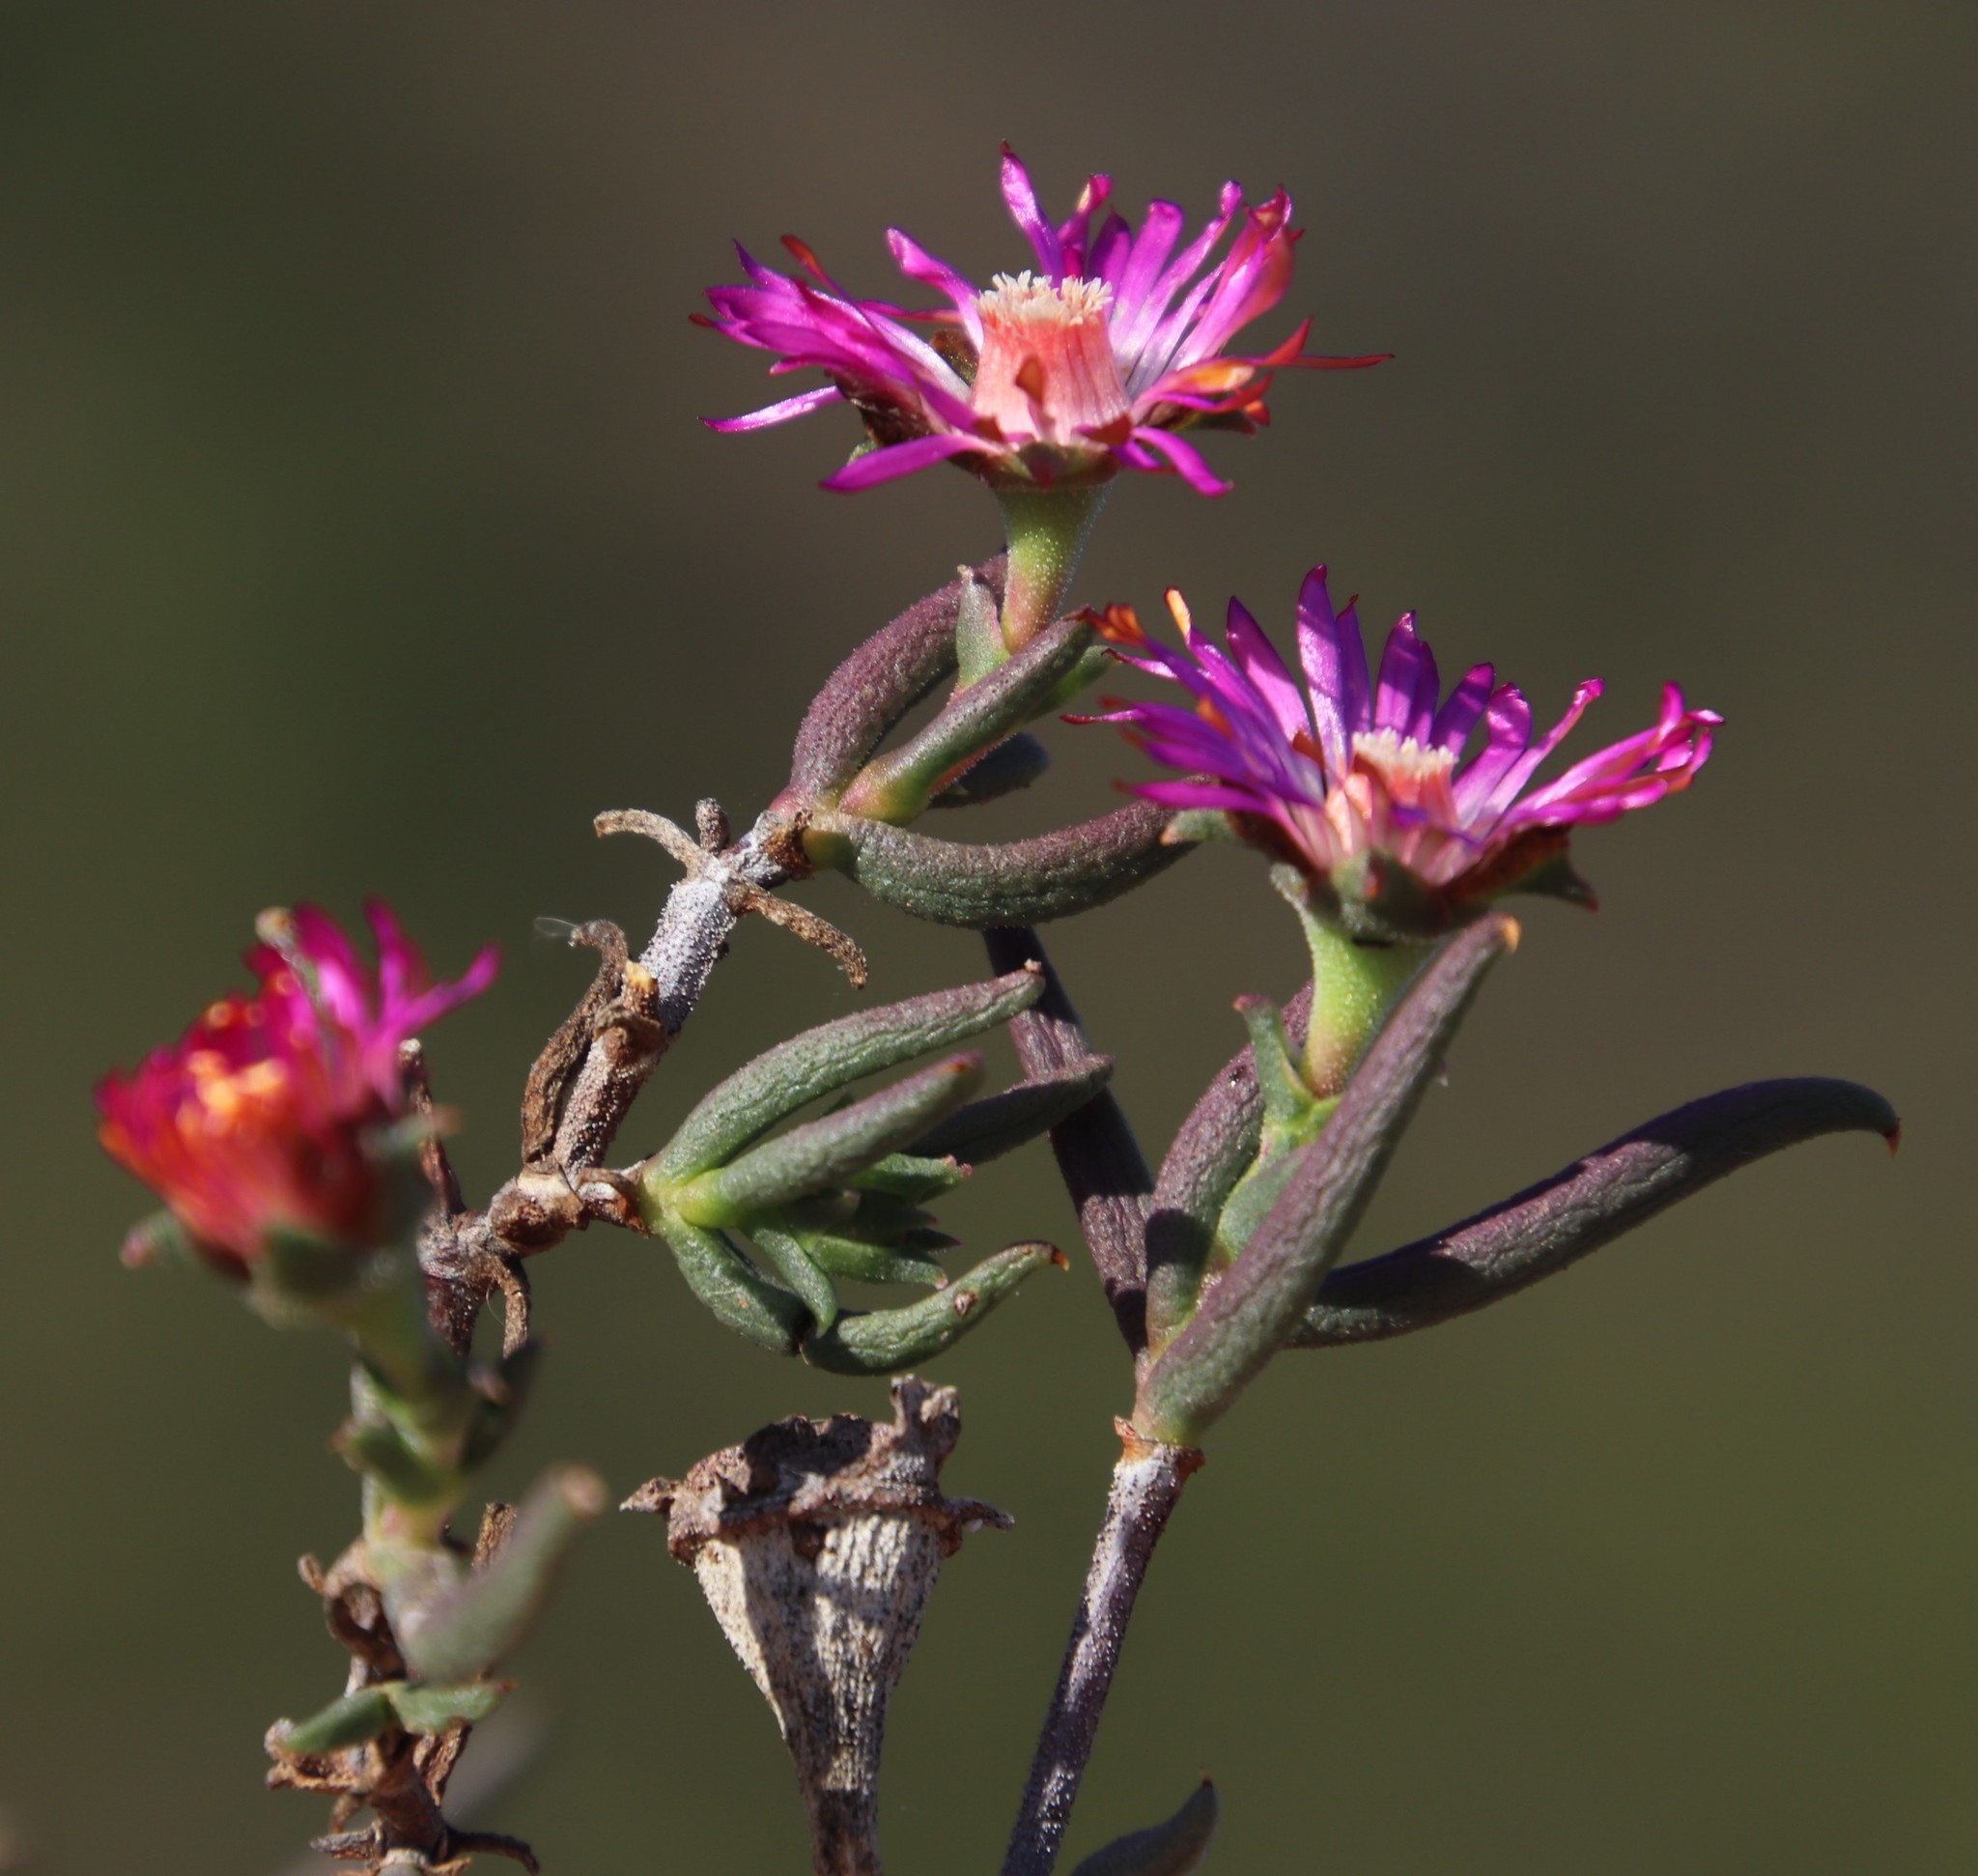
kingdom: Plantae
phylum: Tracheophyta
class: Magnoliopsida
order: Caryophyllales
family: Aizoaceae
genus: Lampranthus
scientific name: Lampranthus spiniformis
